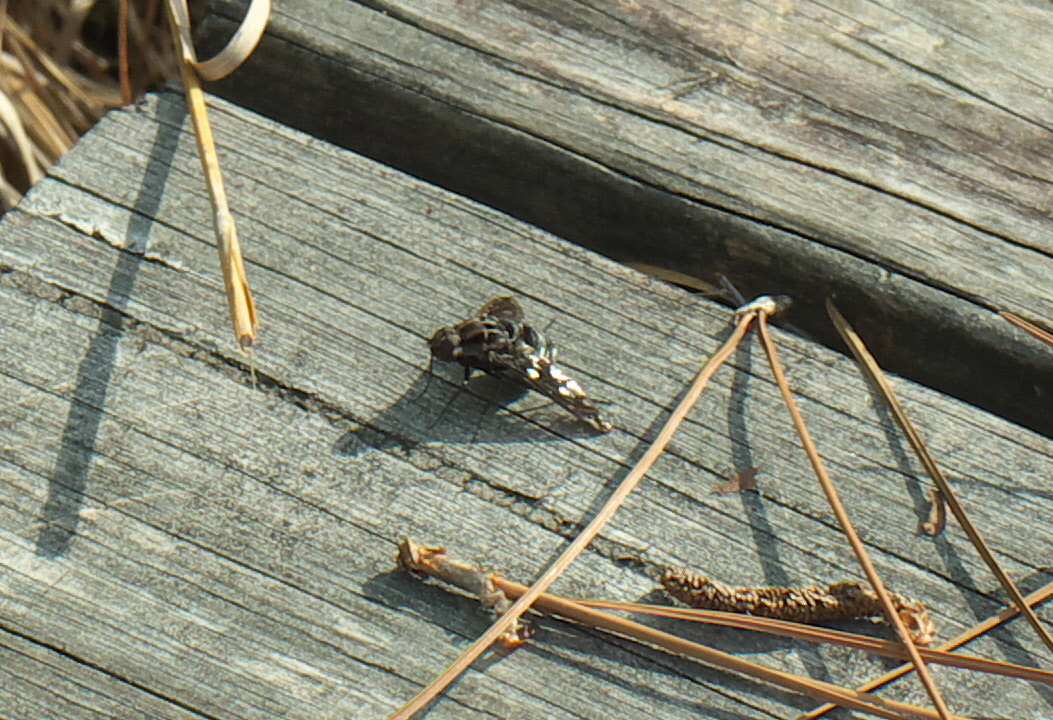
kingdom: Animalia
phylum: Arthropoda
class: Insecta
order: Diptera
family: Bombyliidae
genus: Xenox
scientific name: Xenox tigrinus
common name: Tiger bee fly
